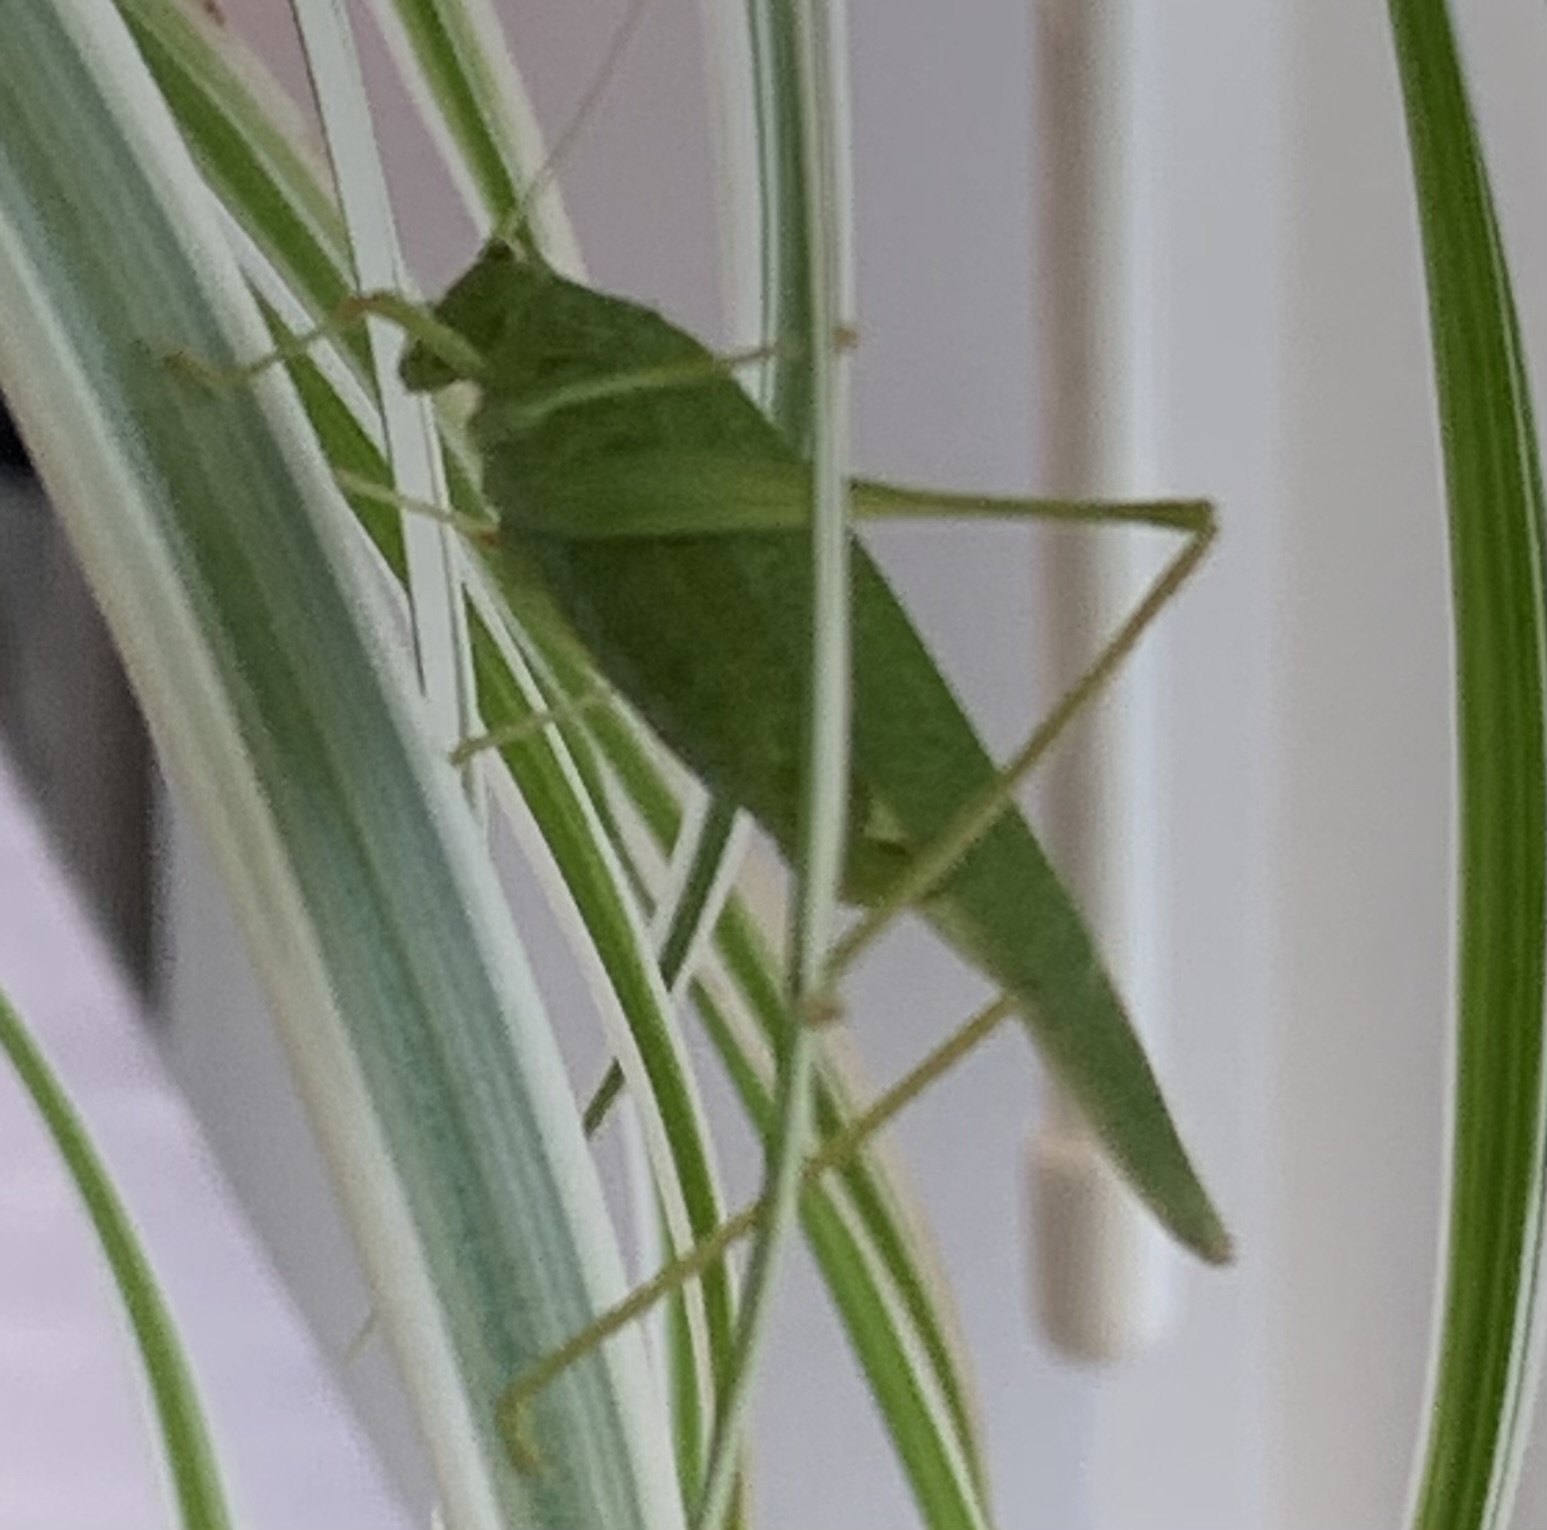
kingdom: Animalia
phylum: Arthropoda
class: Insecta
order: Orthoptera
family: Tettigoniidae
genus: Phaneroptera
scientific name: Phaneroptera nana
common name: Southern sickle bush-cricket
